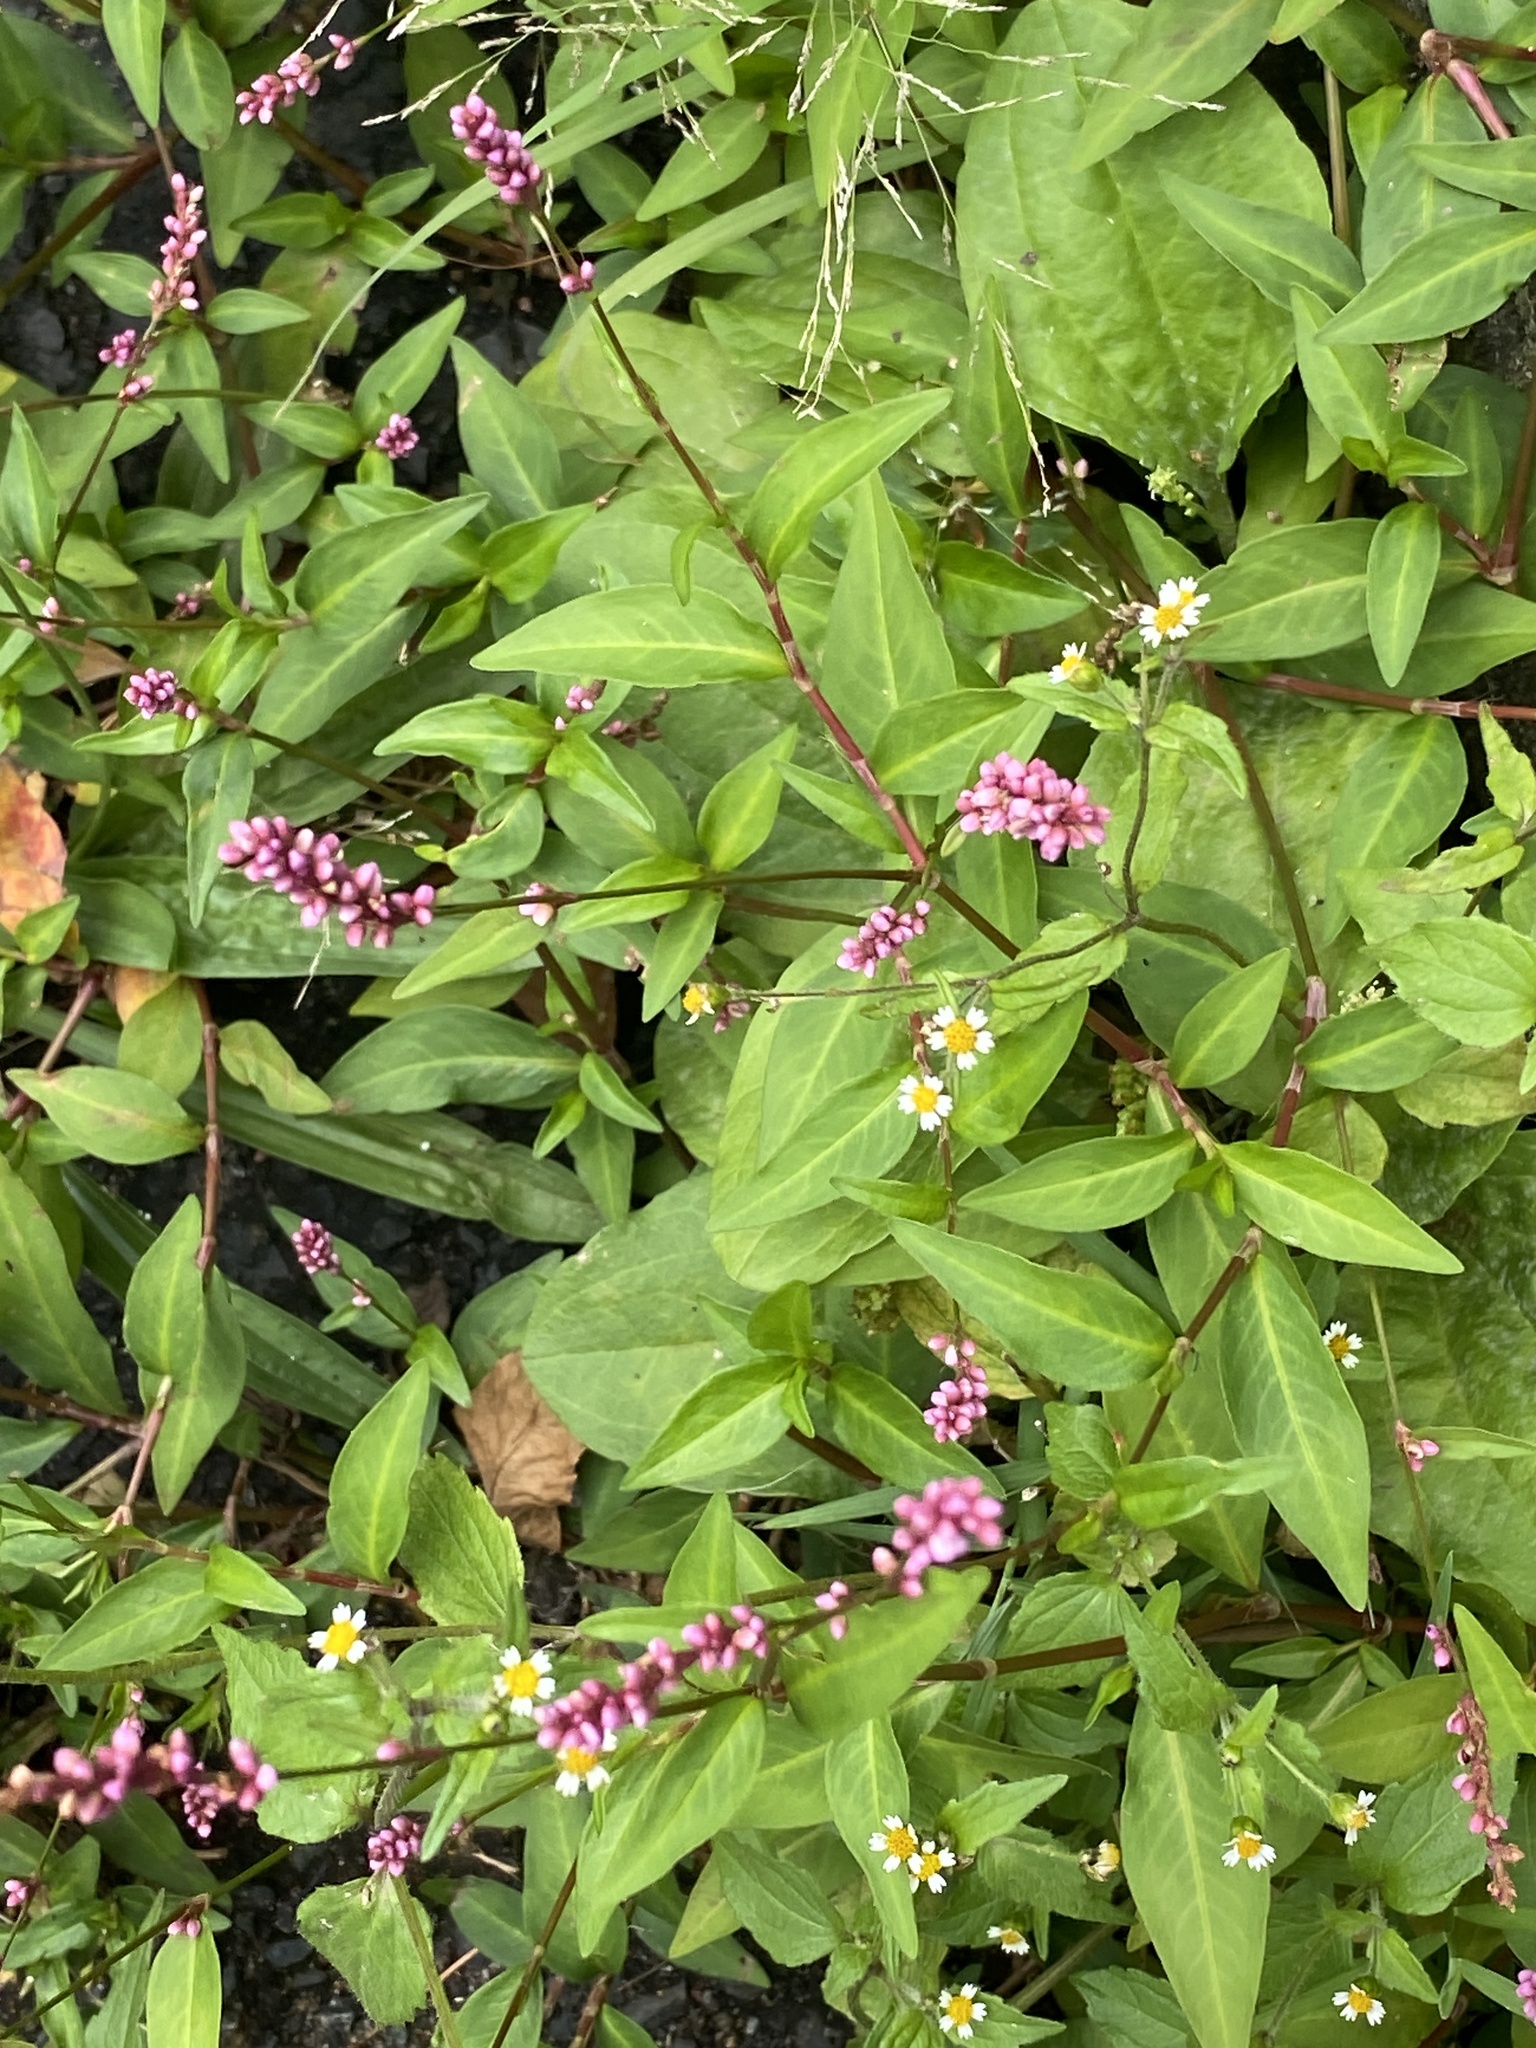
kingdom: Plantae
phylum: Tracheophyta
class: Magnoliopsida
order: Caryophyllales
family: Polygonaceae
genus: Persicaria
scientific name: Persicaria longiseta
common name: Bristly lady's-thumb
